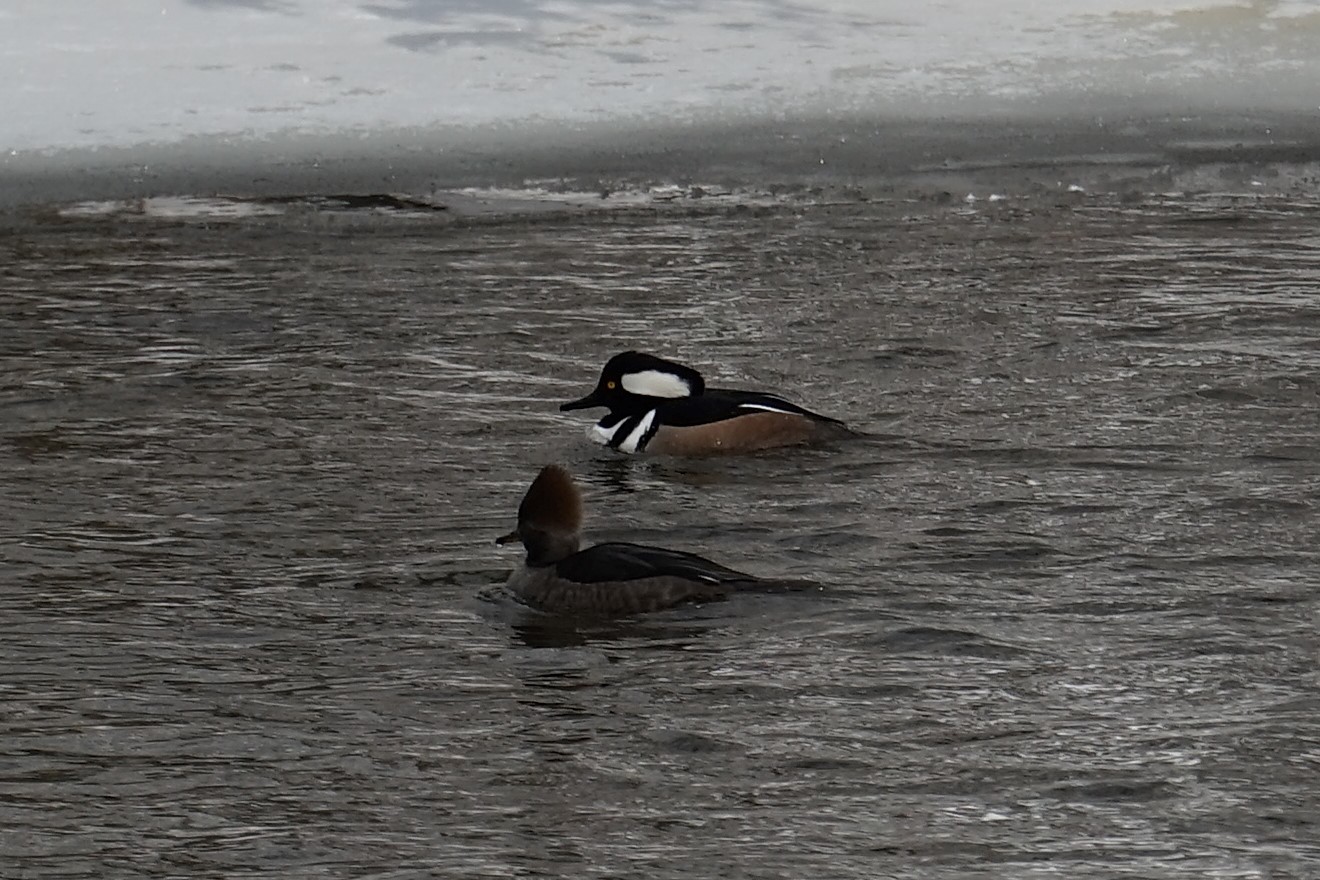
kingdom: Animalia
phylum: Chordata
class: Aves
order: Anseriformes
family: Anatidae
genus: Lophodytes
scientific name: Lophodytes cucullatus
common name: Hooded merganser
